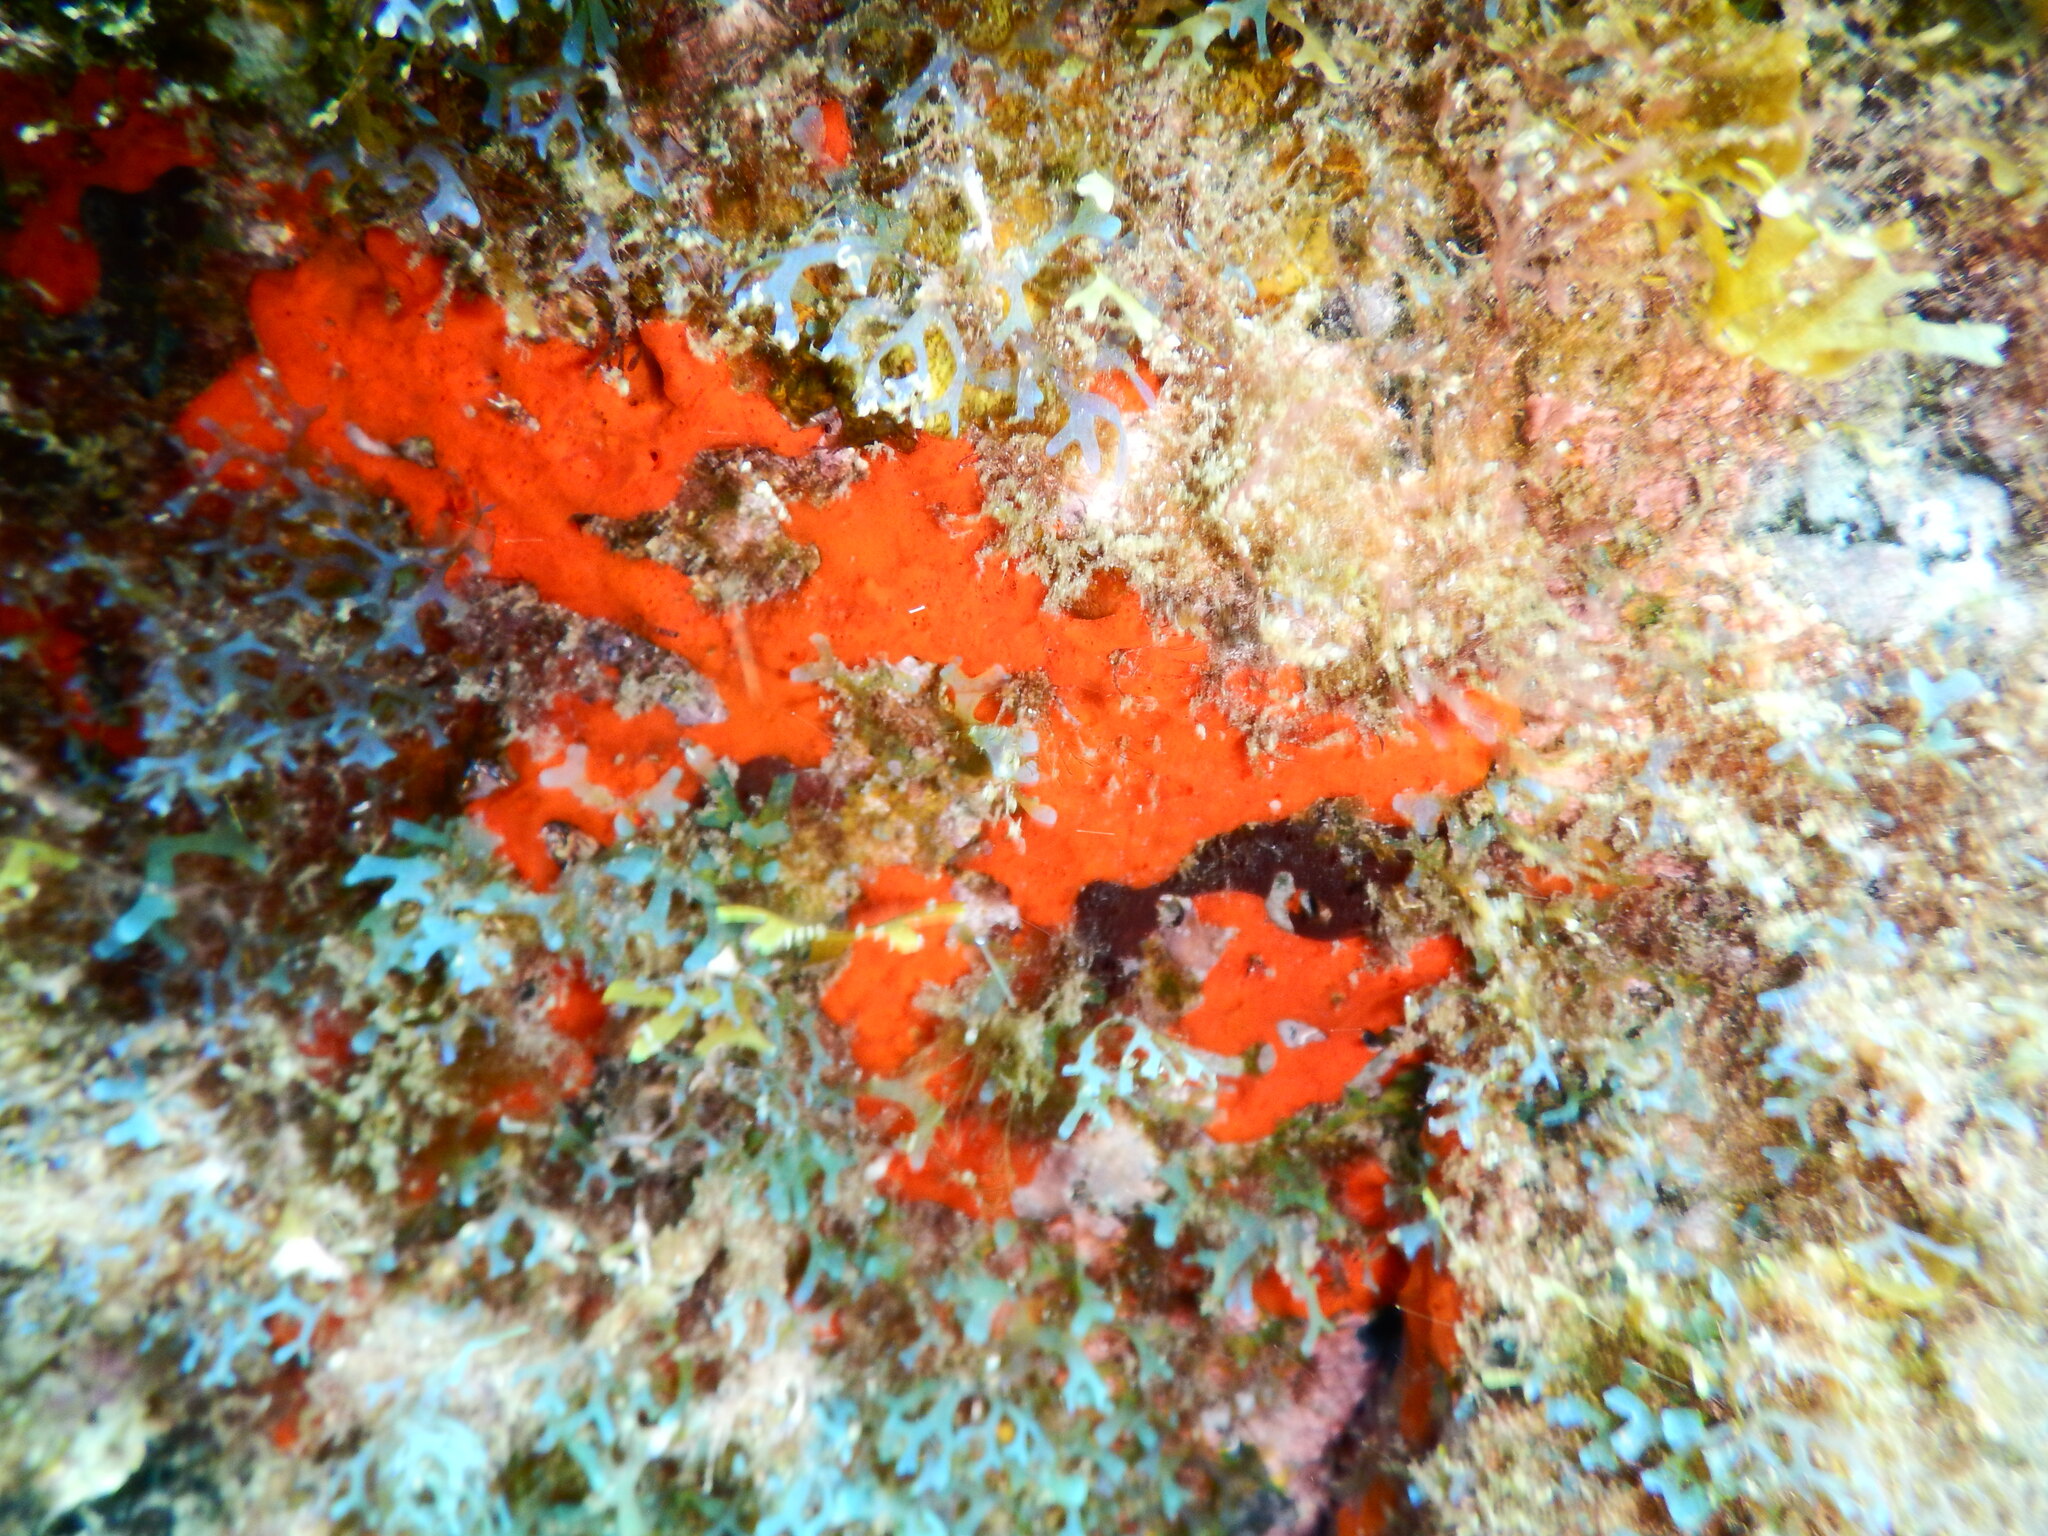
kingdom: Animalia
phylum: Porifera
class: Demospongiae
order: Poecilosclerida
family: Crambeidae
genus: Crambe
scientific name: Crambe crambe
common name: Orange-red encrusting sponge
